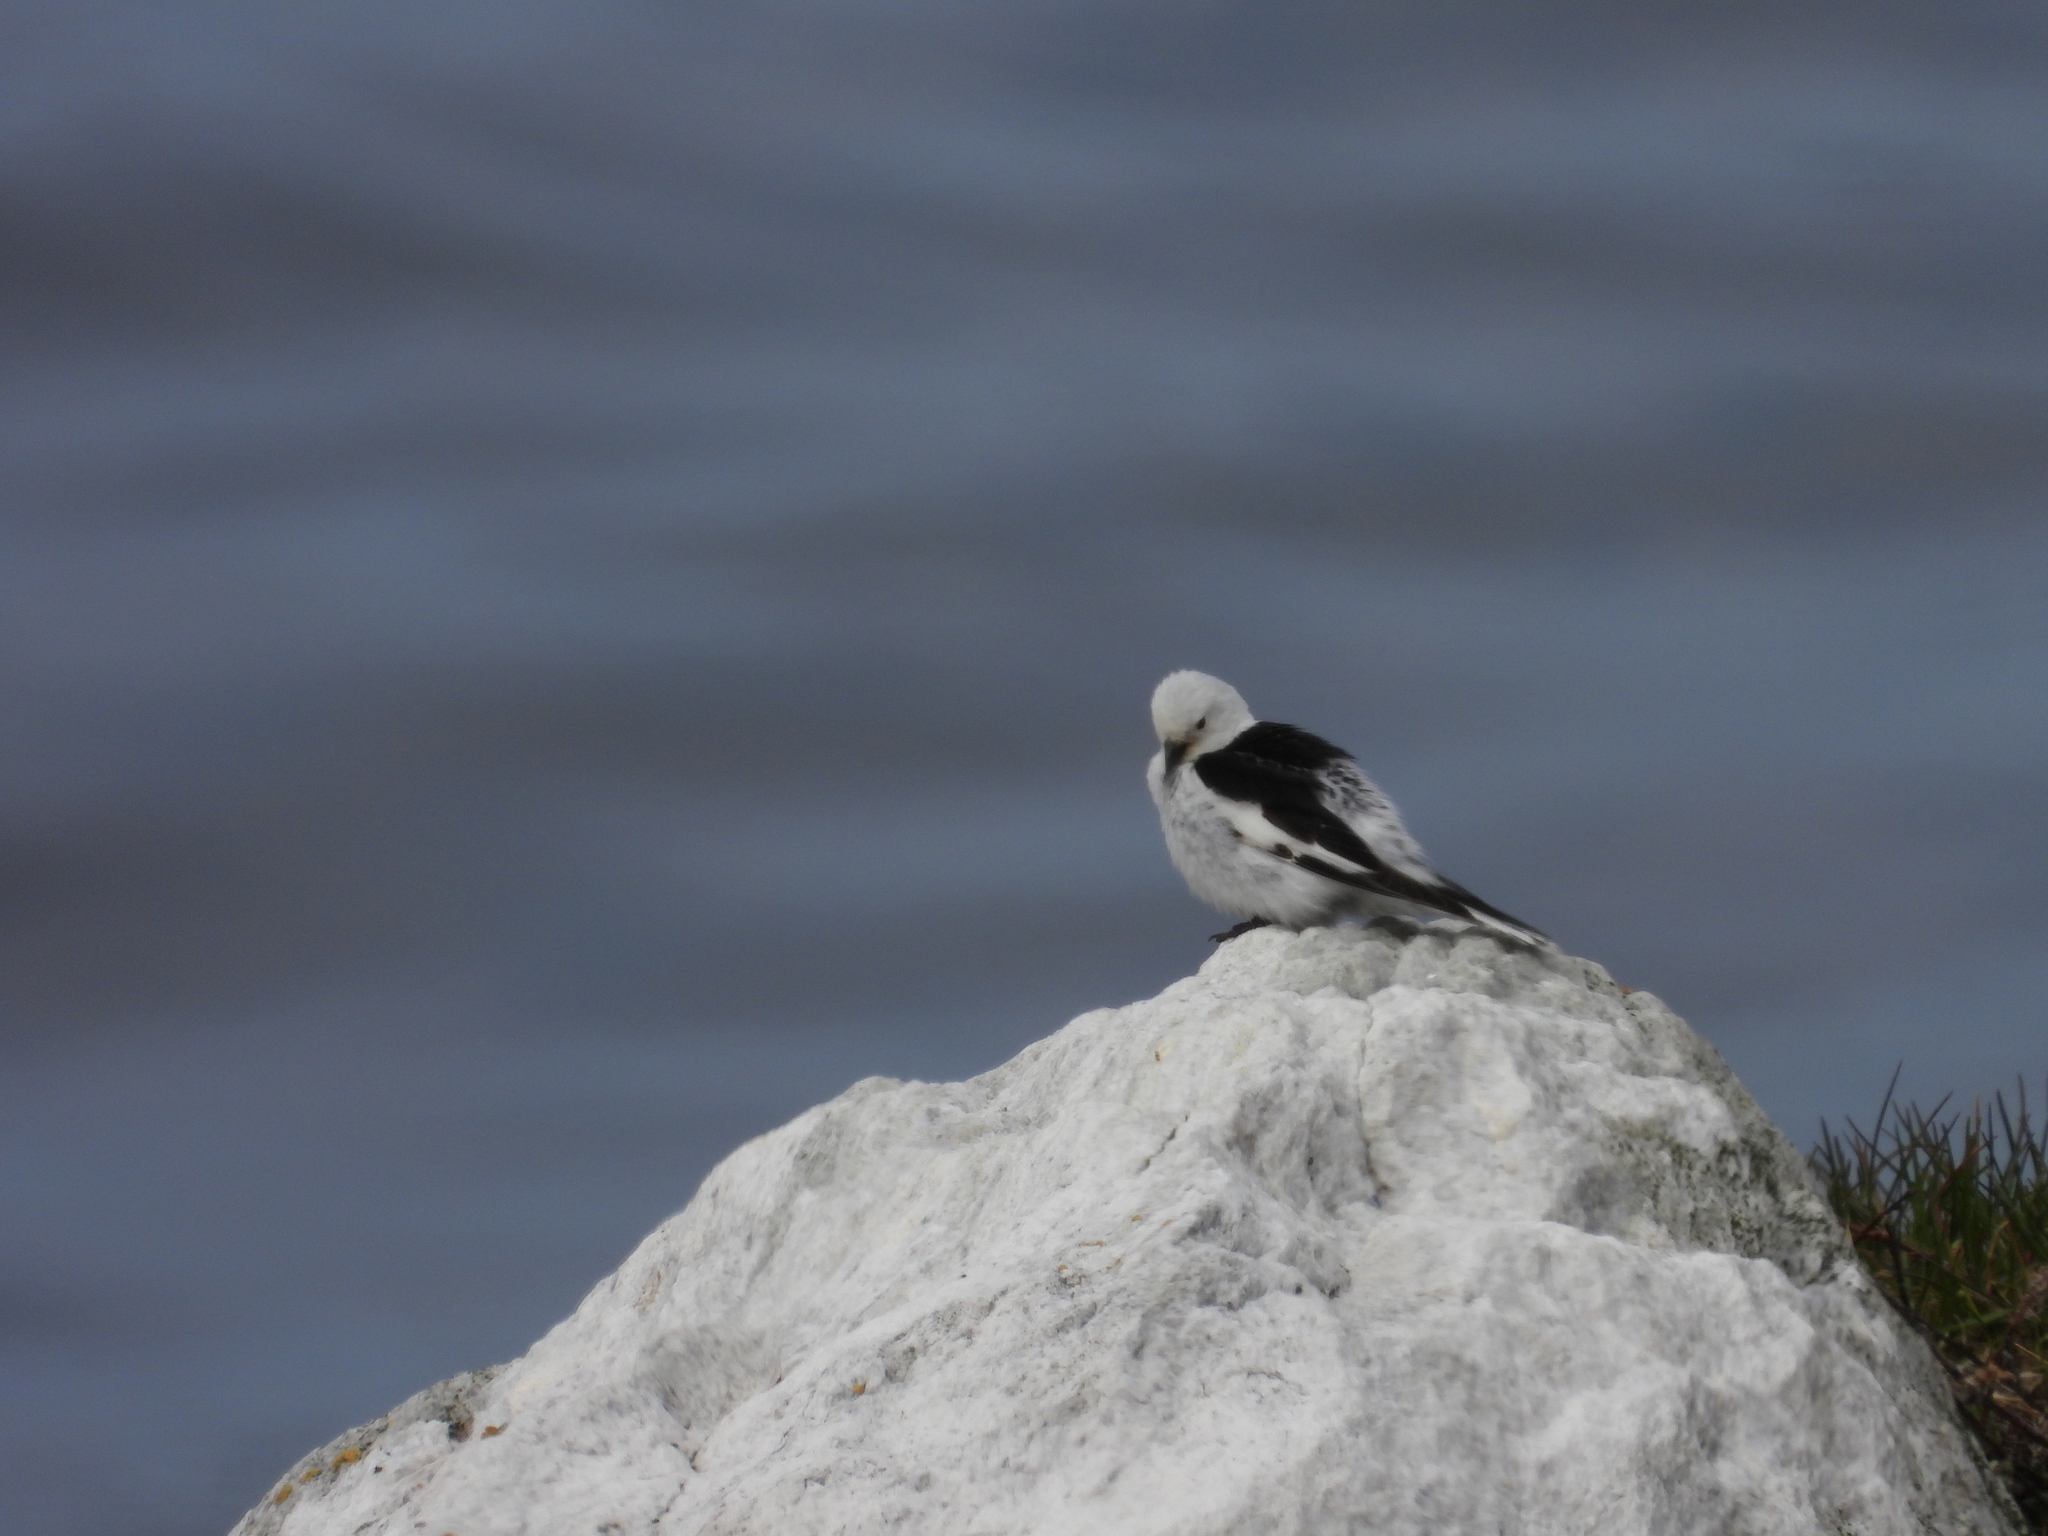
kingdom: Animalia
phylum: Chordata
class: Aves
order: Passeriformes
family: Calcariidae
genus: Plectrophenax
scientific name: Plectrophenax nivalis
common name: Snow bunting
